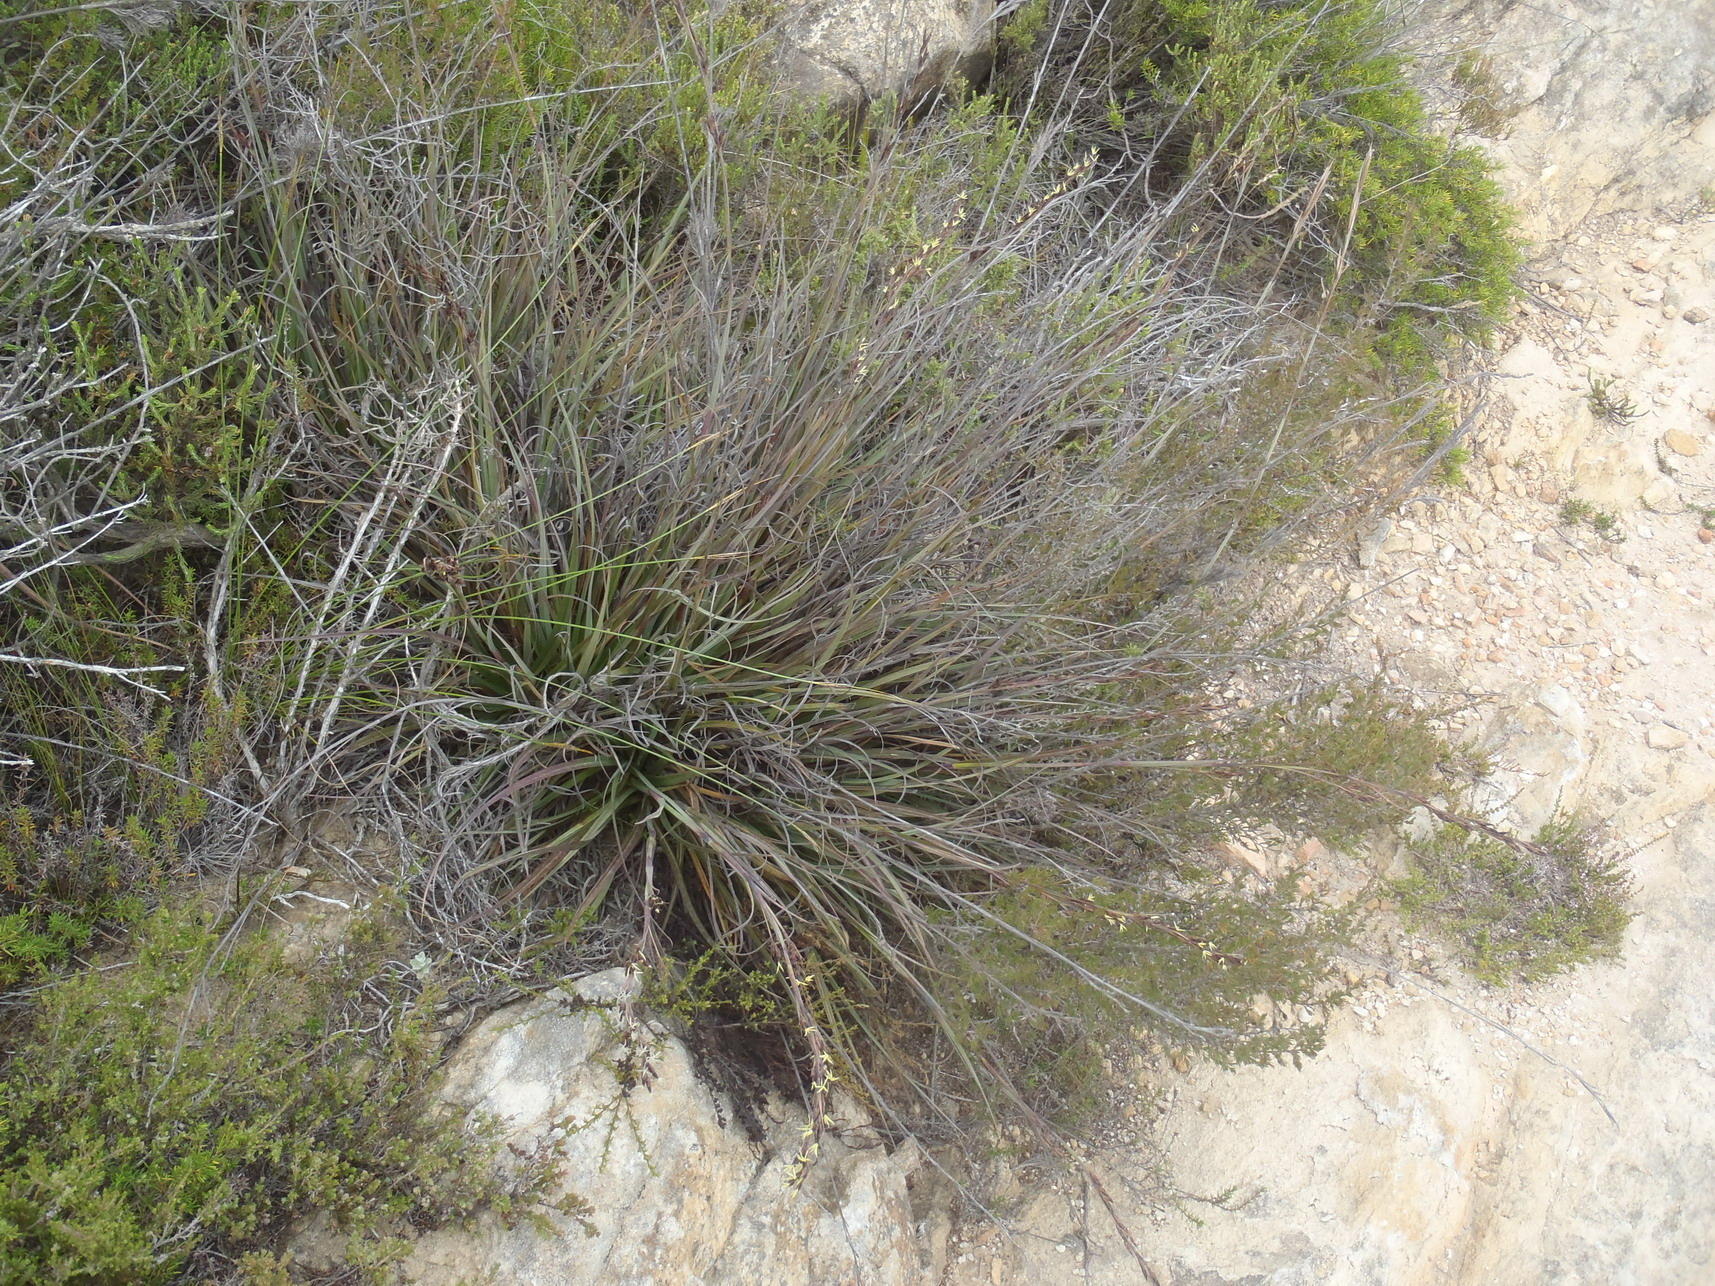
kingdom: Plantae
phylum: Tracheophyta
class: Liliopsida
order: Poales
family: Cyperaceae
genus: Tetraria
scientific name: Tetraria triangularis
